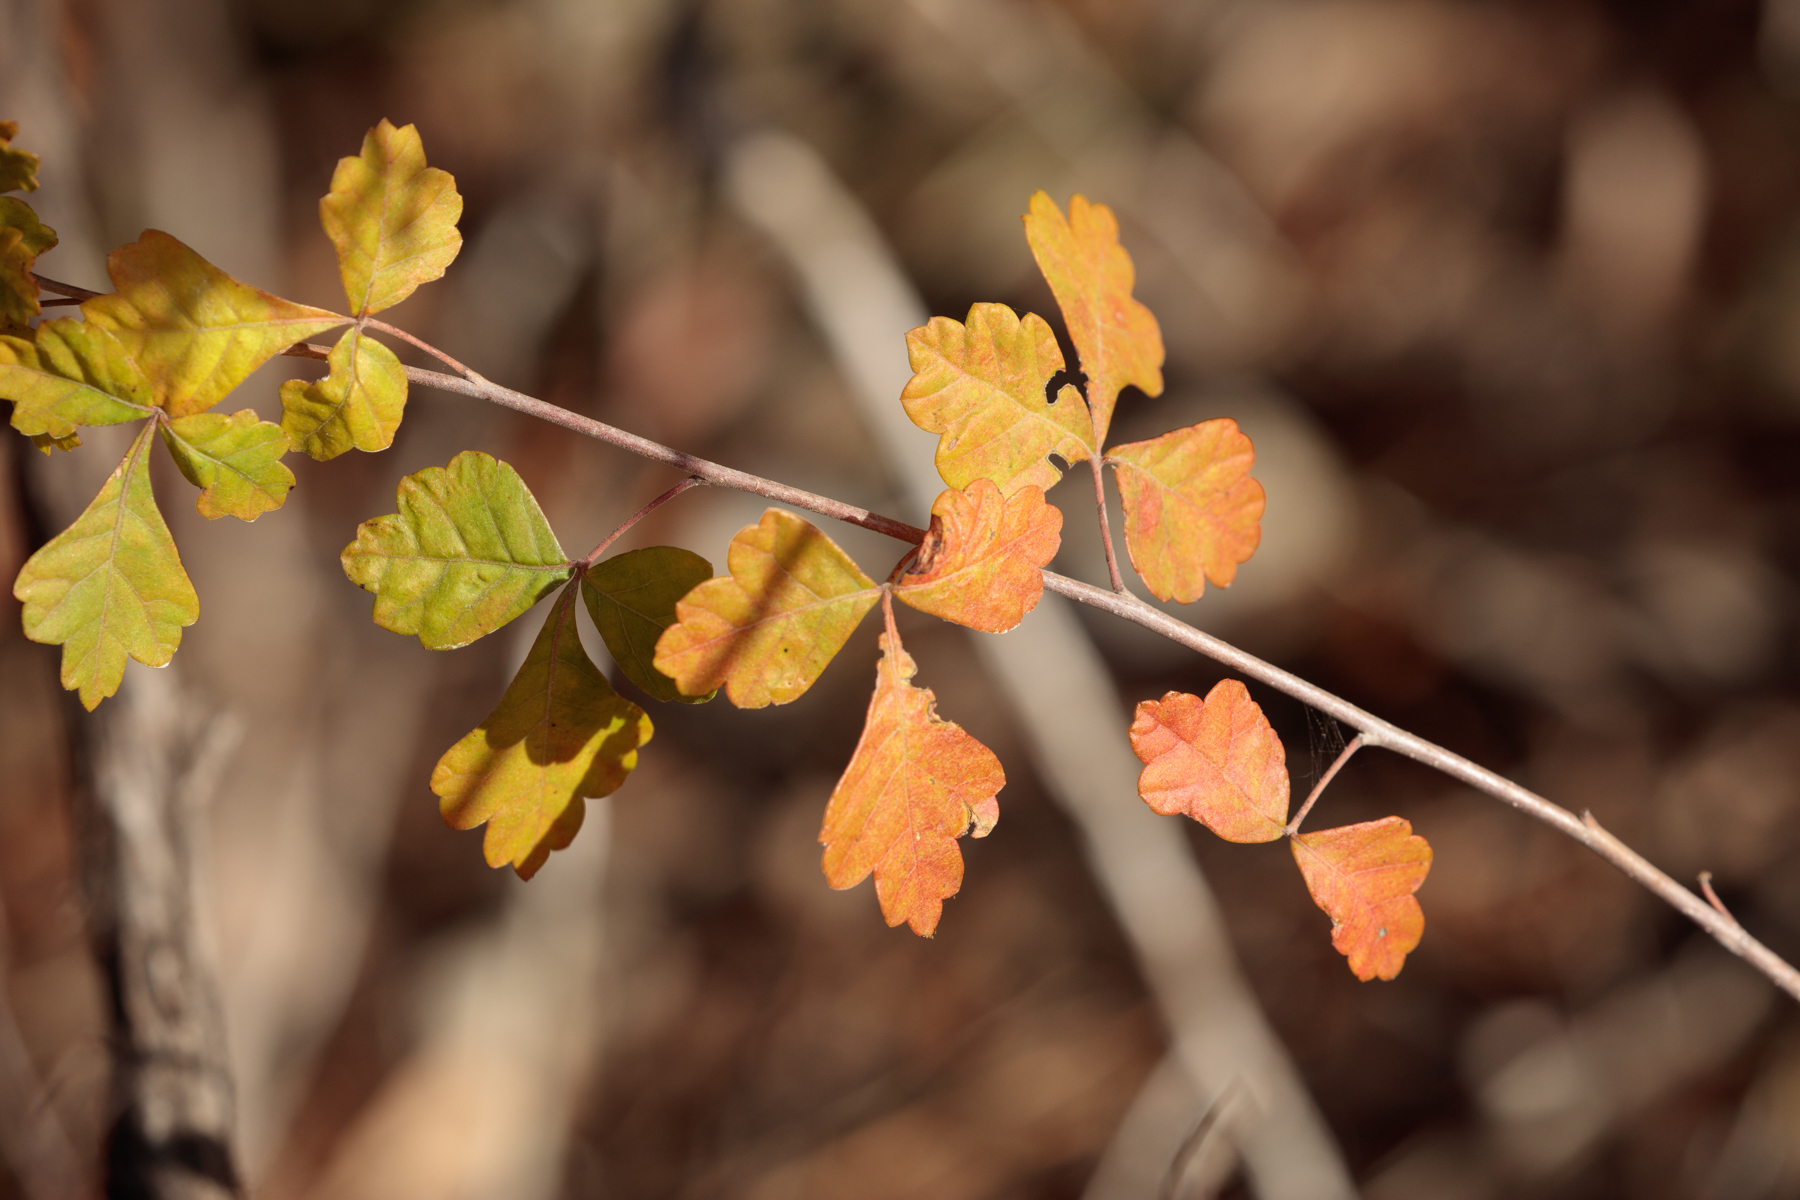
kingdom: Plantae
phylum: Tracheophyta
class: Magnoliopsida
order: Sapindales
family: Anacardiaceae
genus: Rhus
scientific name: Rhus aromatica
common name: Aromatic sumac
